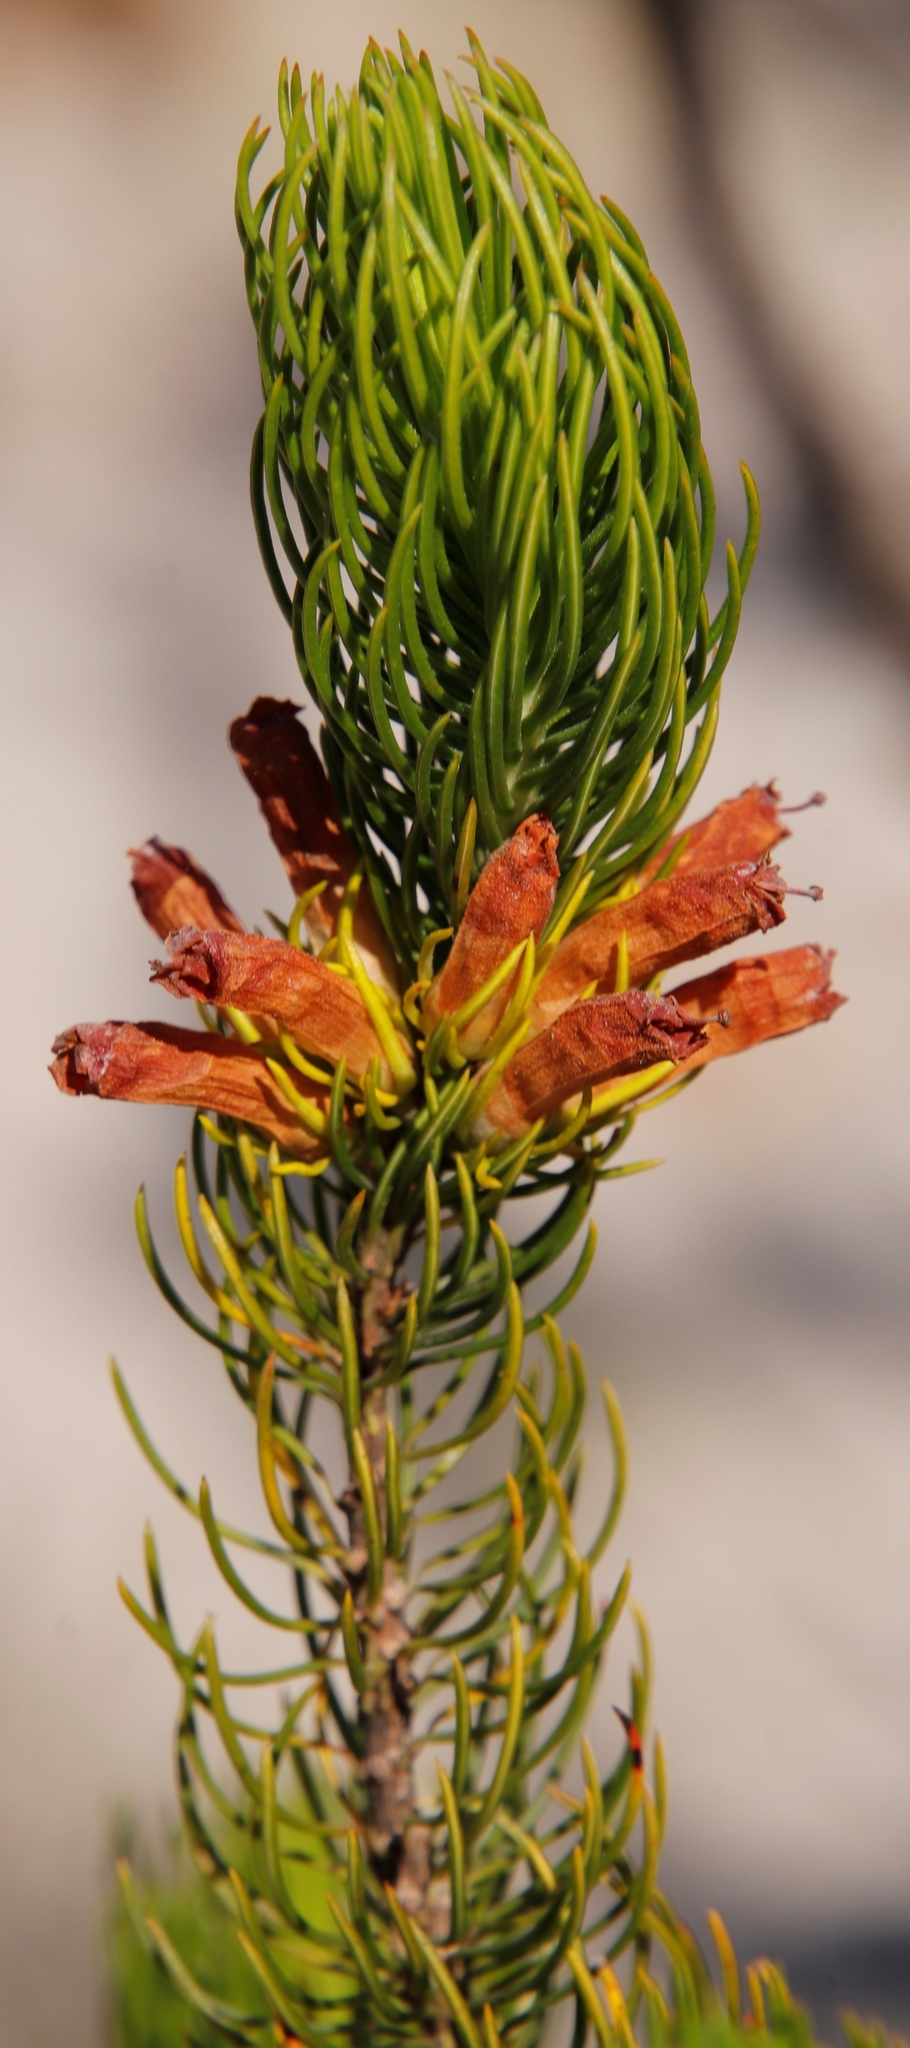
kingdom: Plantae
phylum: Tracheophyta
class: Magnoliopsida
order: Ericales
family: Ericaceae
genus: Erica
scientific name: Erica viscaria
